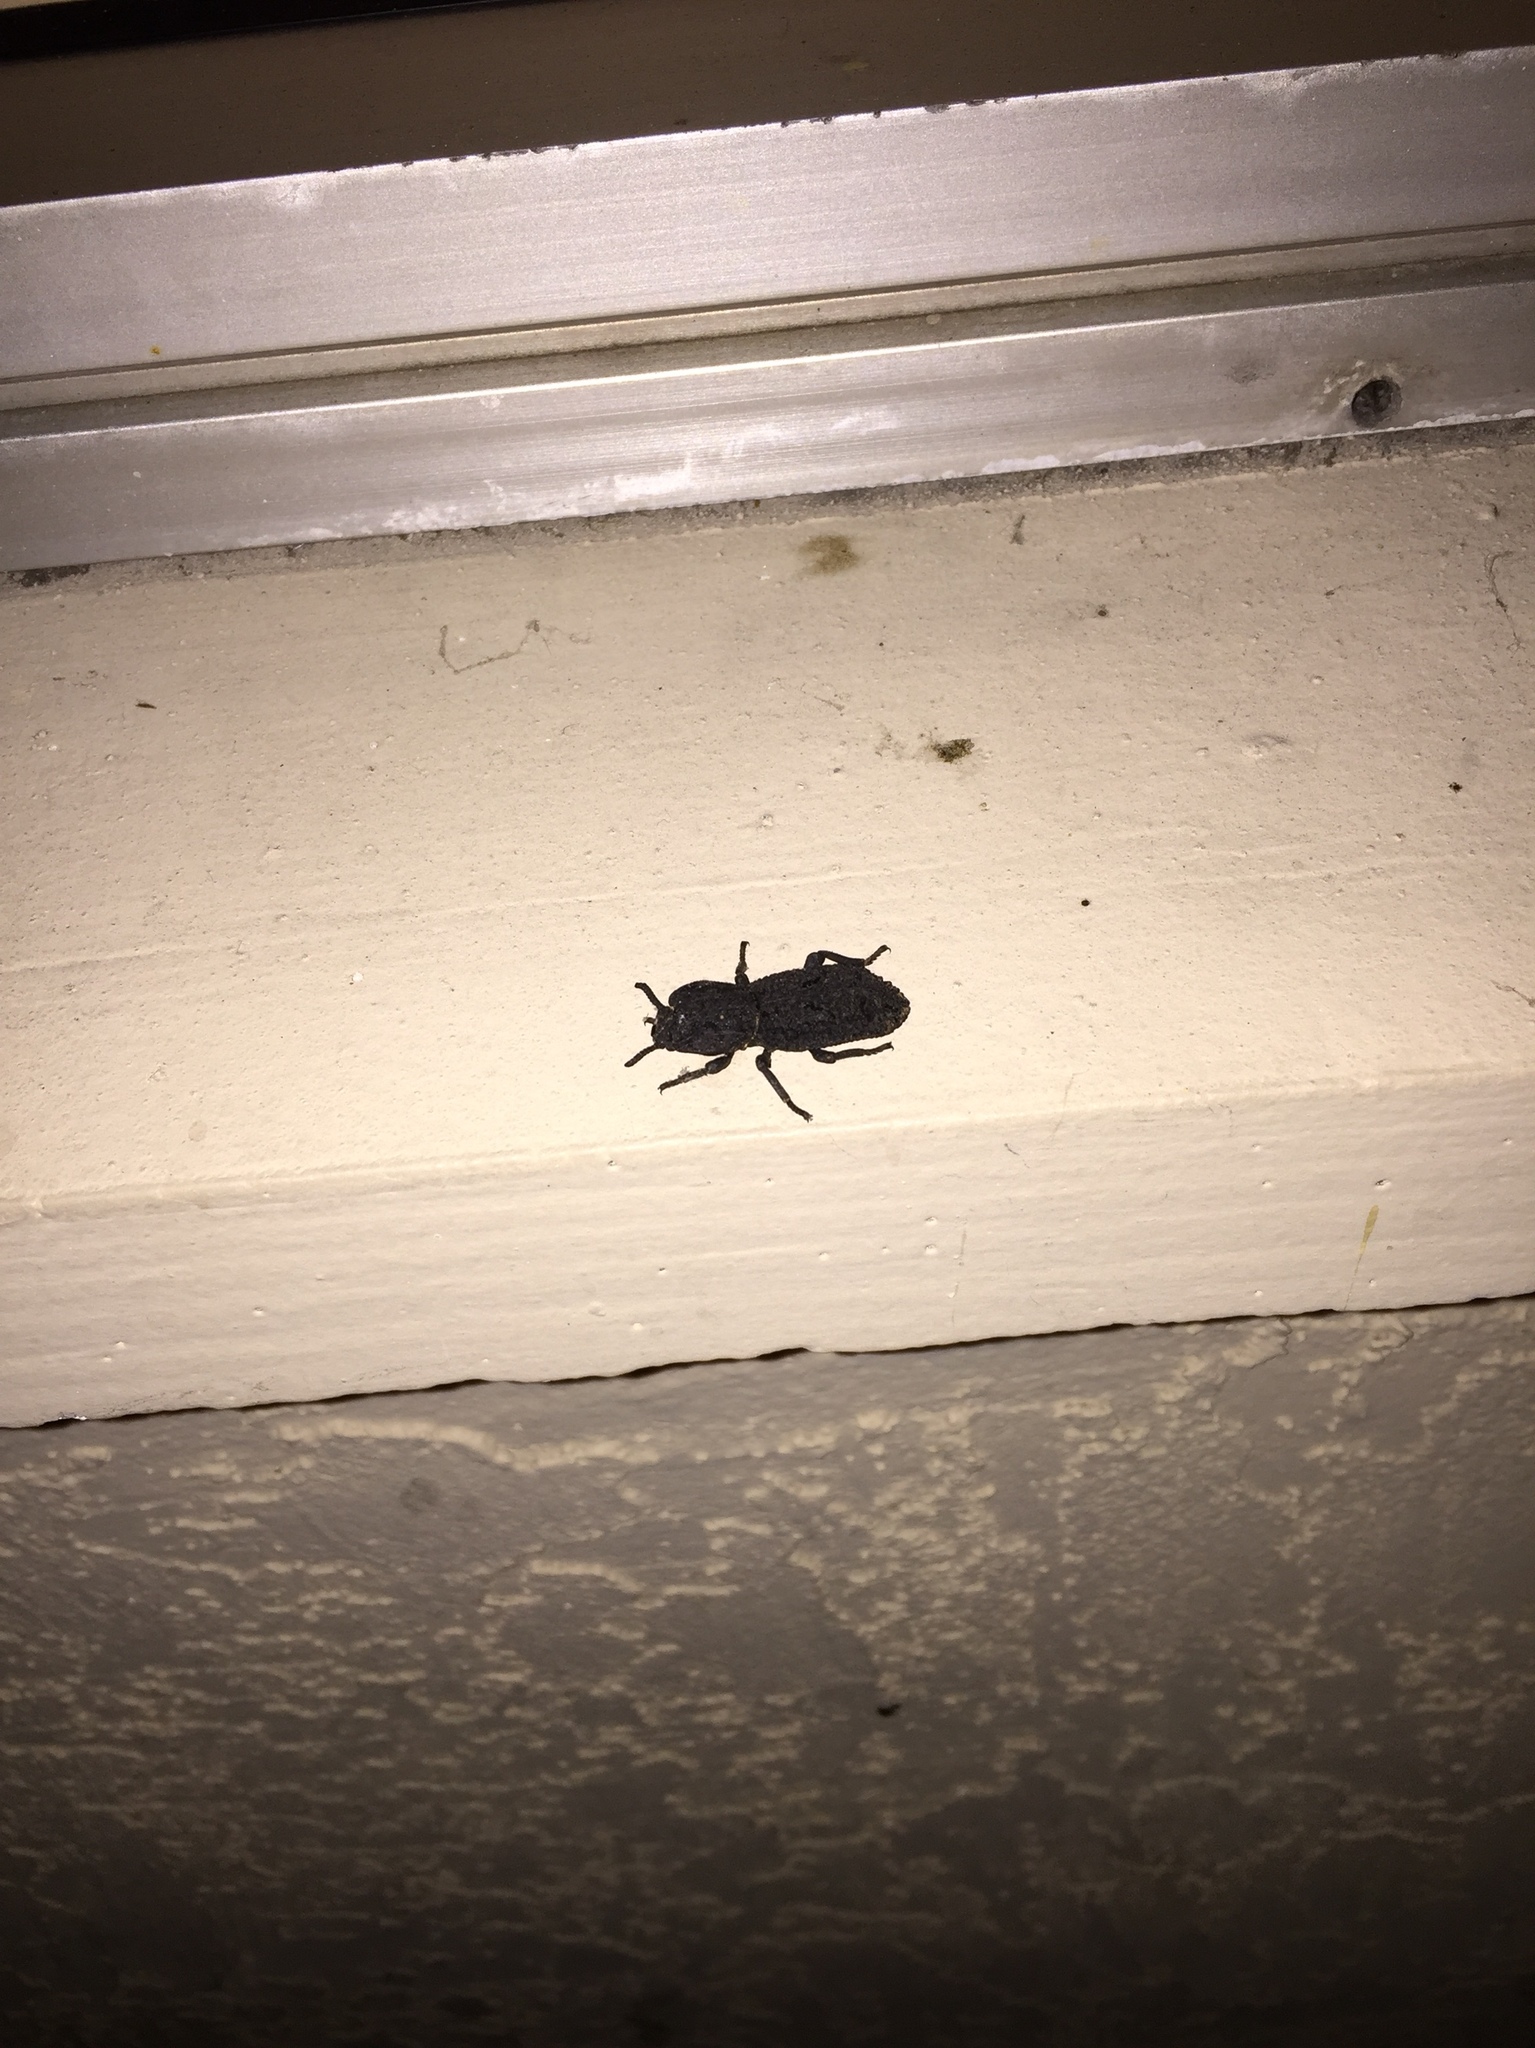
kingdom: Animalia
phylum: Arthropoda
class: Insecta
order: Coleoptera
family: Zopheridae
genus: Phloeodes
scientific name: Phloeodes diabolicus
